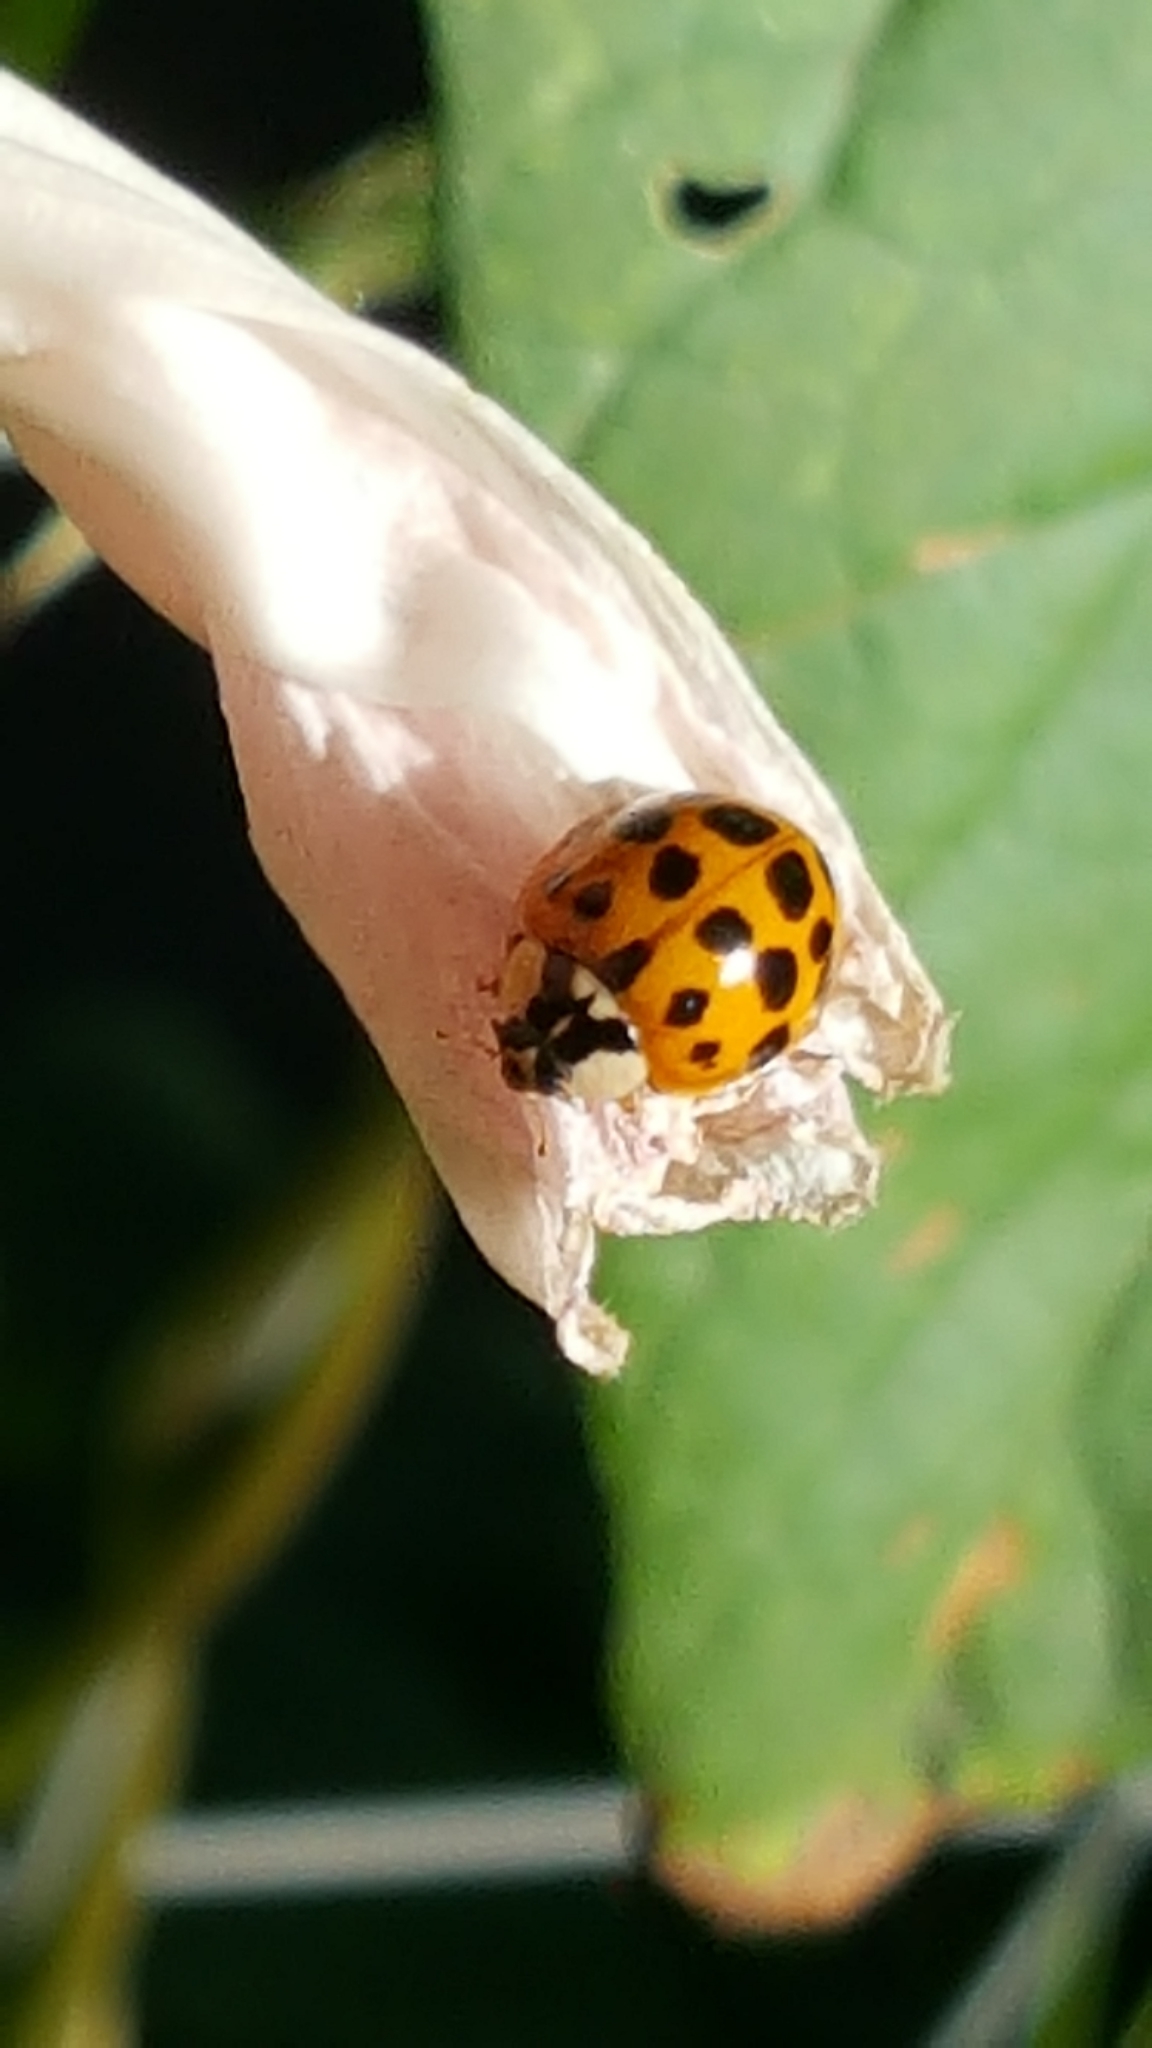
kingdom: Animalia
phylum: Arthropoda
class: Insecta
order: Coleoptera
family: Coccinellidae
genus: Harmonia
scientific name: Harmonia axyridis
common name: Harlequin ladybird
